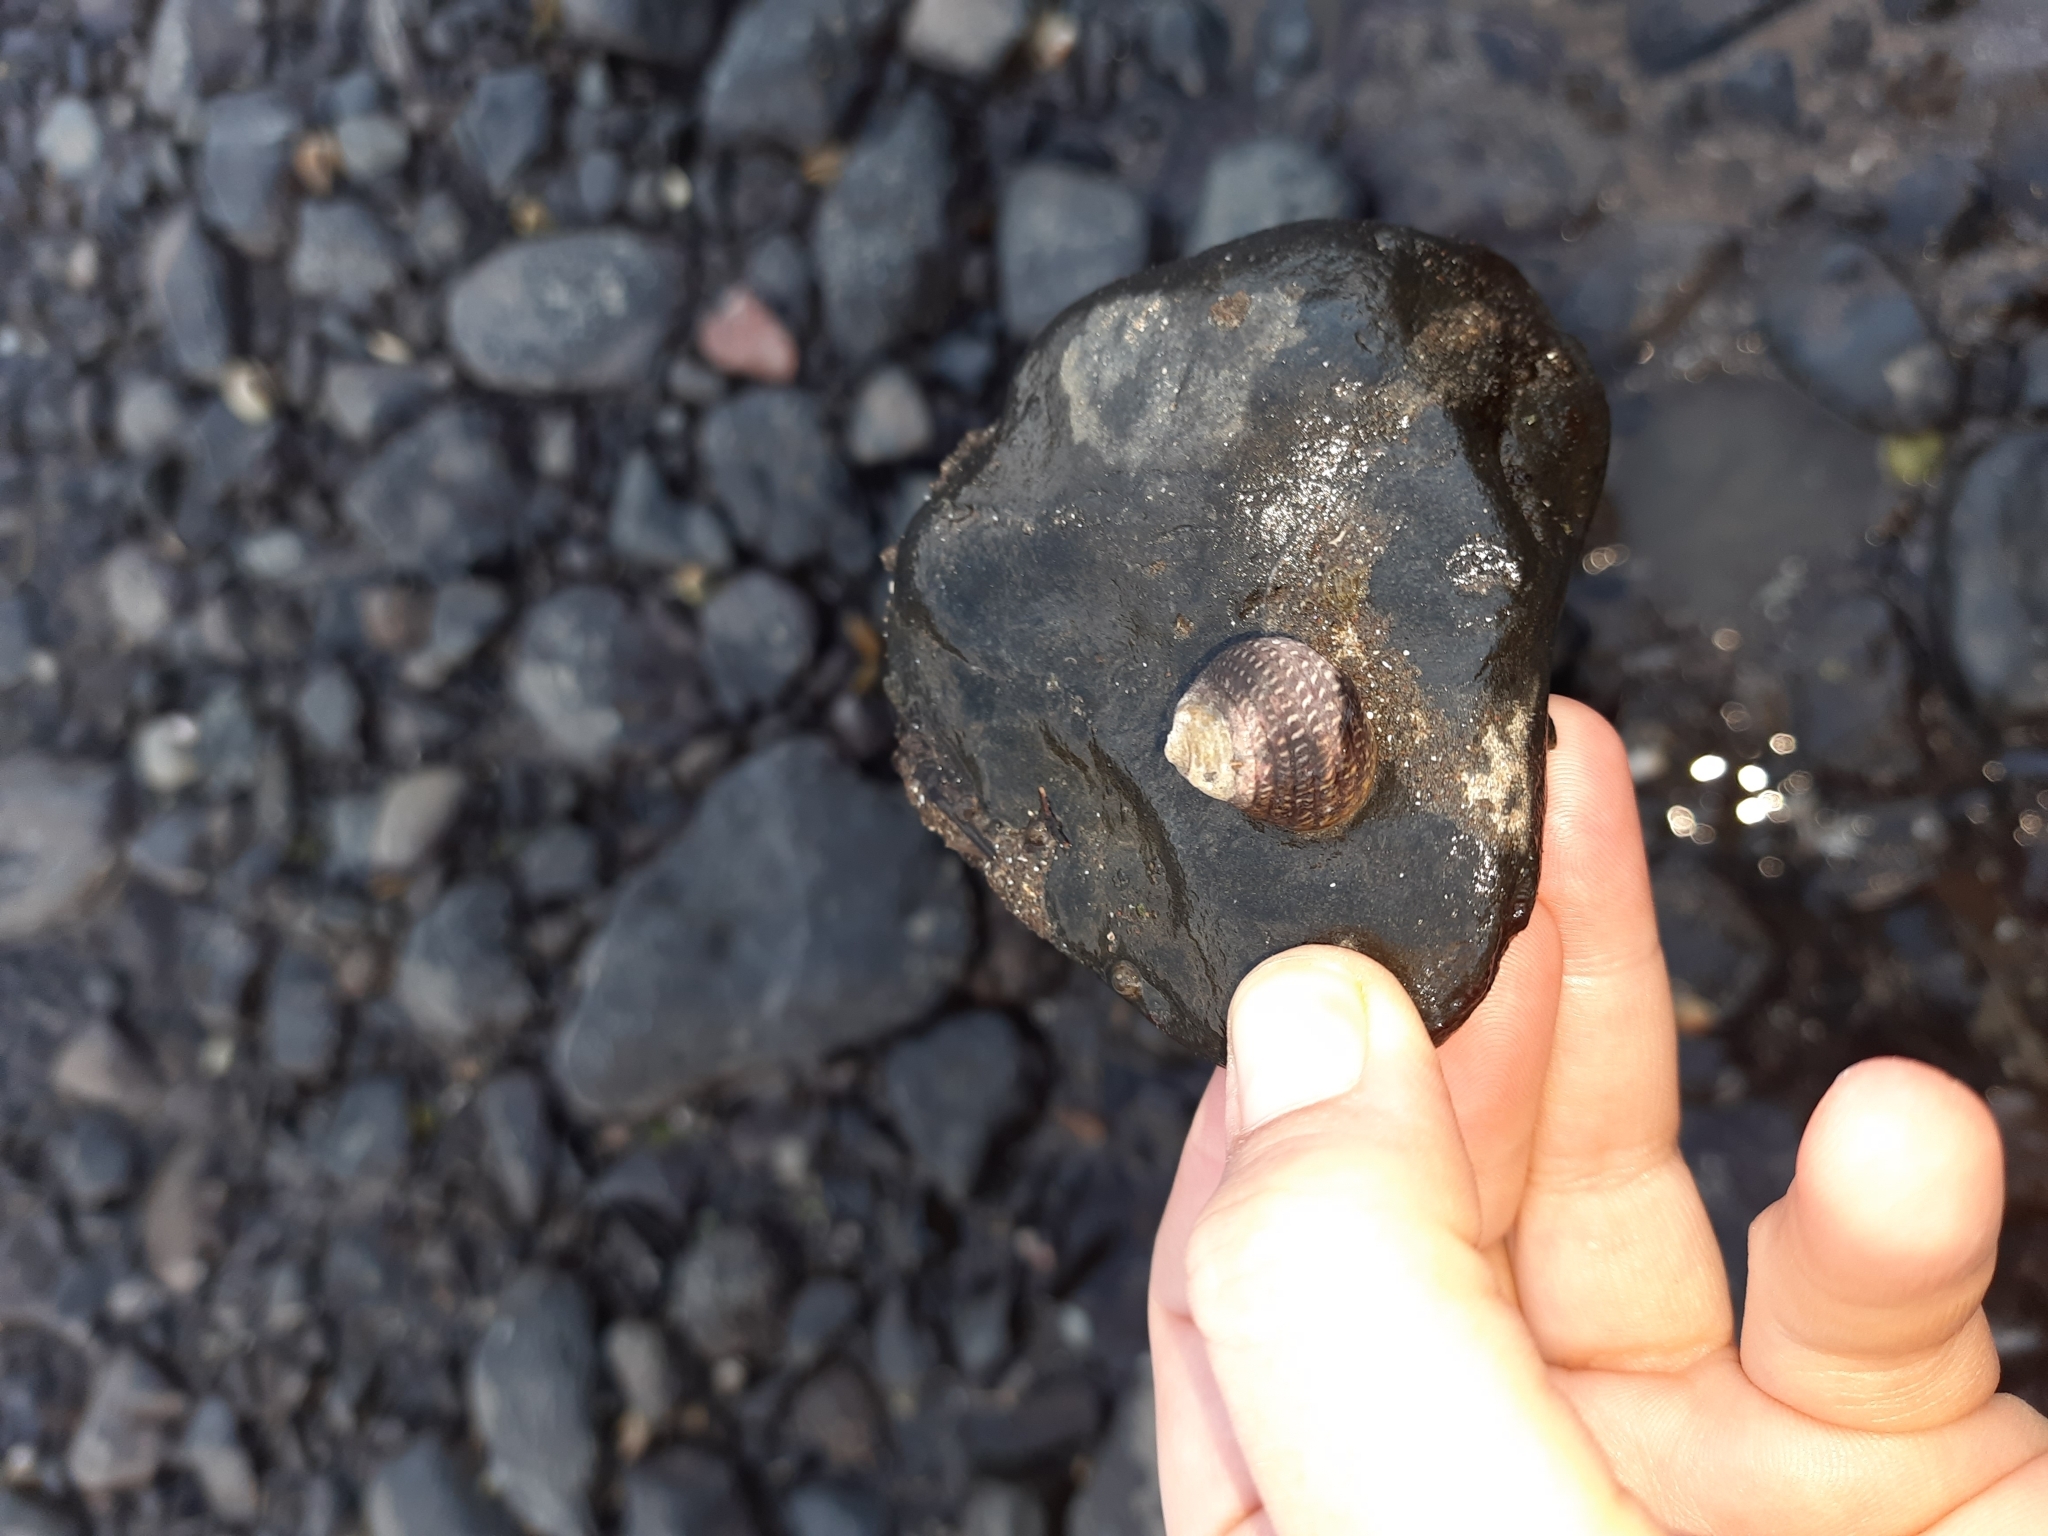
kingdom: Animalia
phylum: Mollusca
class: Gastropoda
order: Trochida
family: Trochidae
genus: Diloma
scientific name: Diloma aethiops
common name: Scorched monodont
